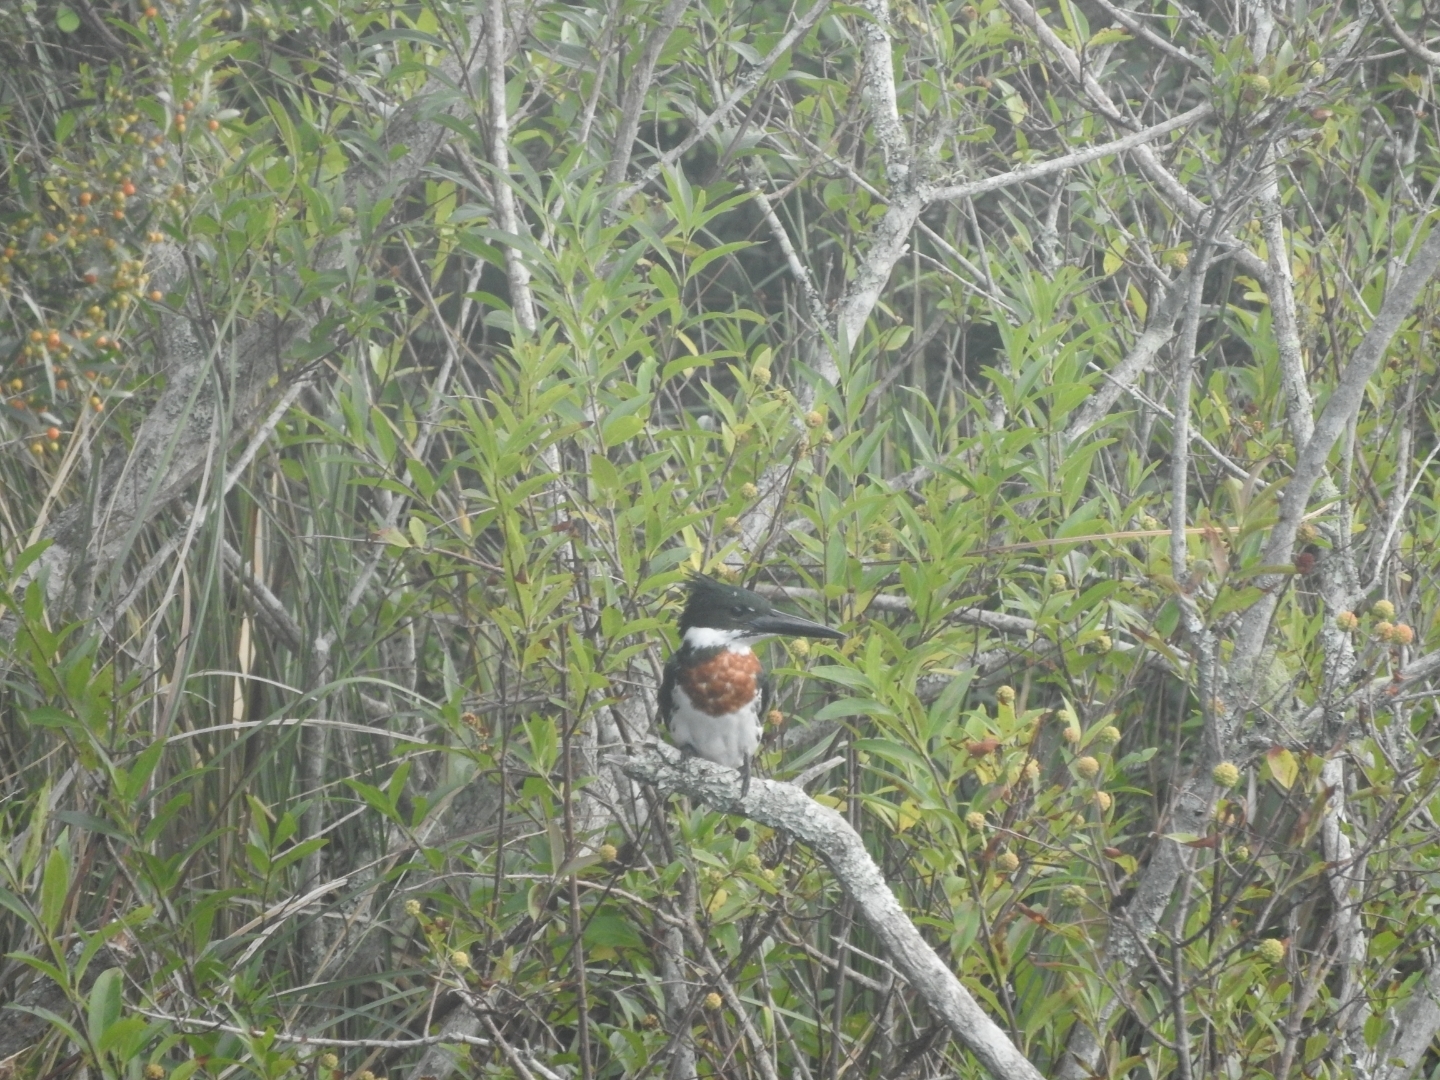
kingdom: Animalia
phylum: Chordata
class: Aves
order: Coraciiformes
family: Alcedinidae
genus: Chloroceryle
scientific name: Chloroceryle amazona
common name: Amazon kingfisher
